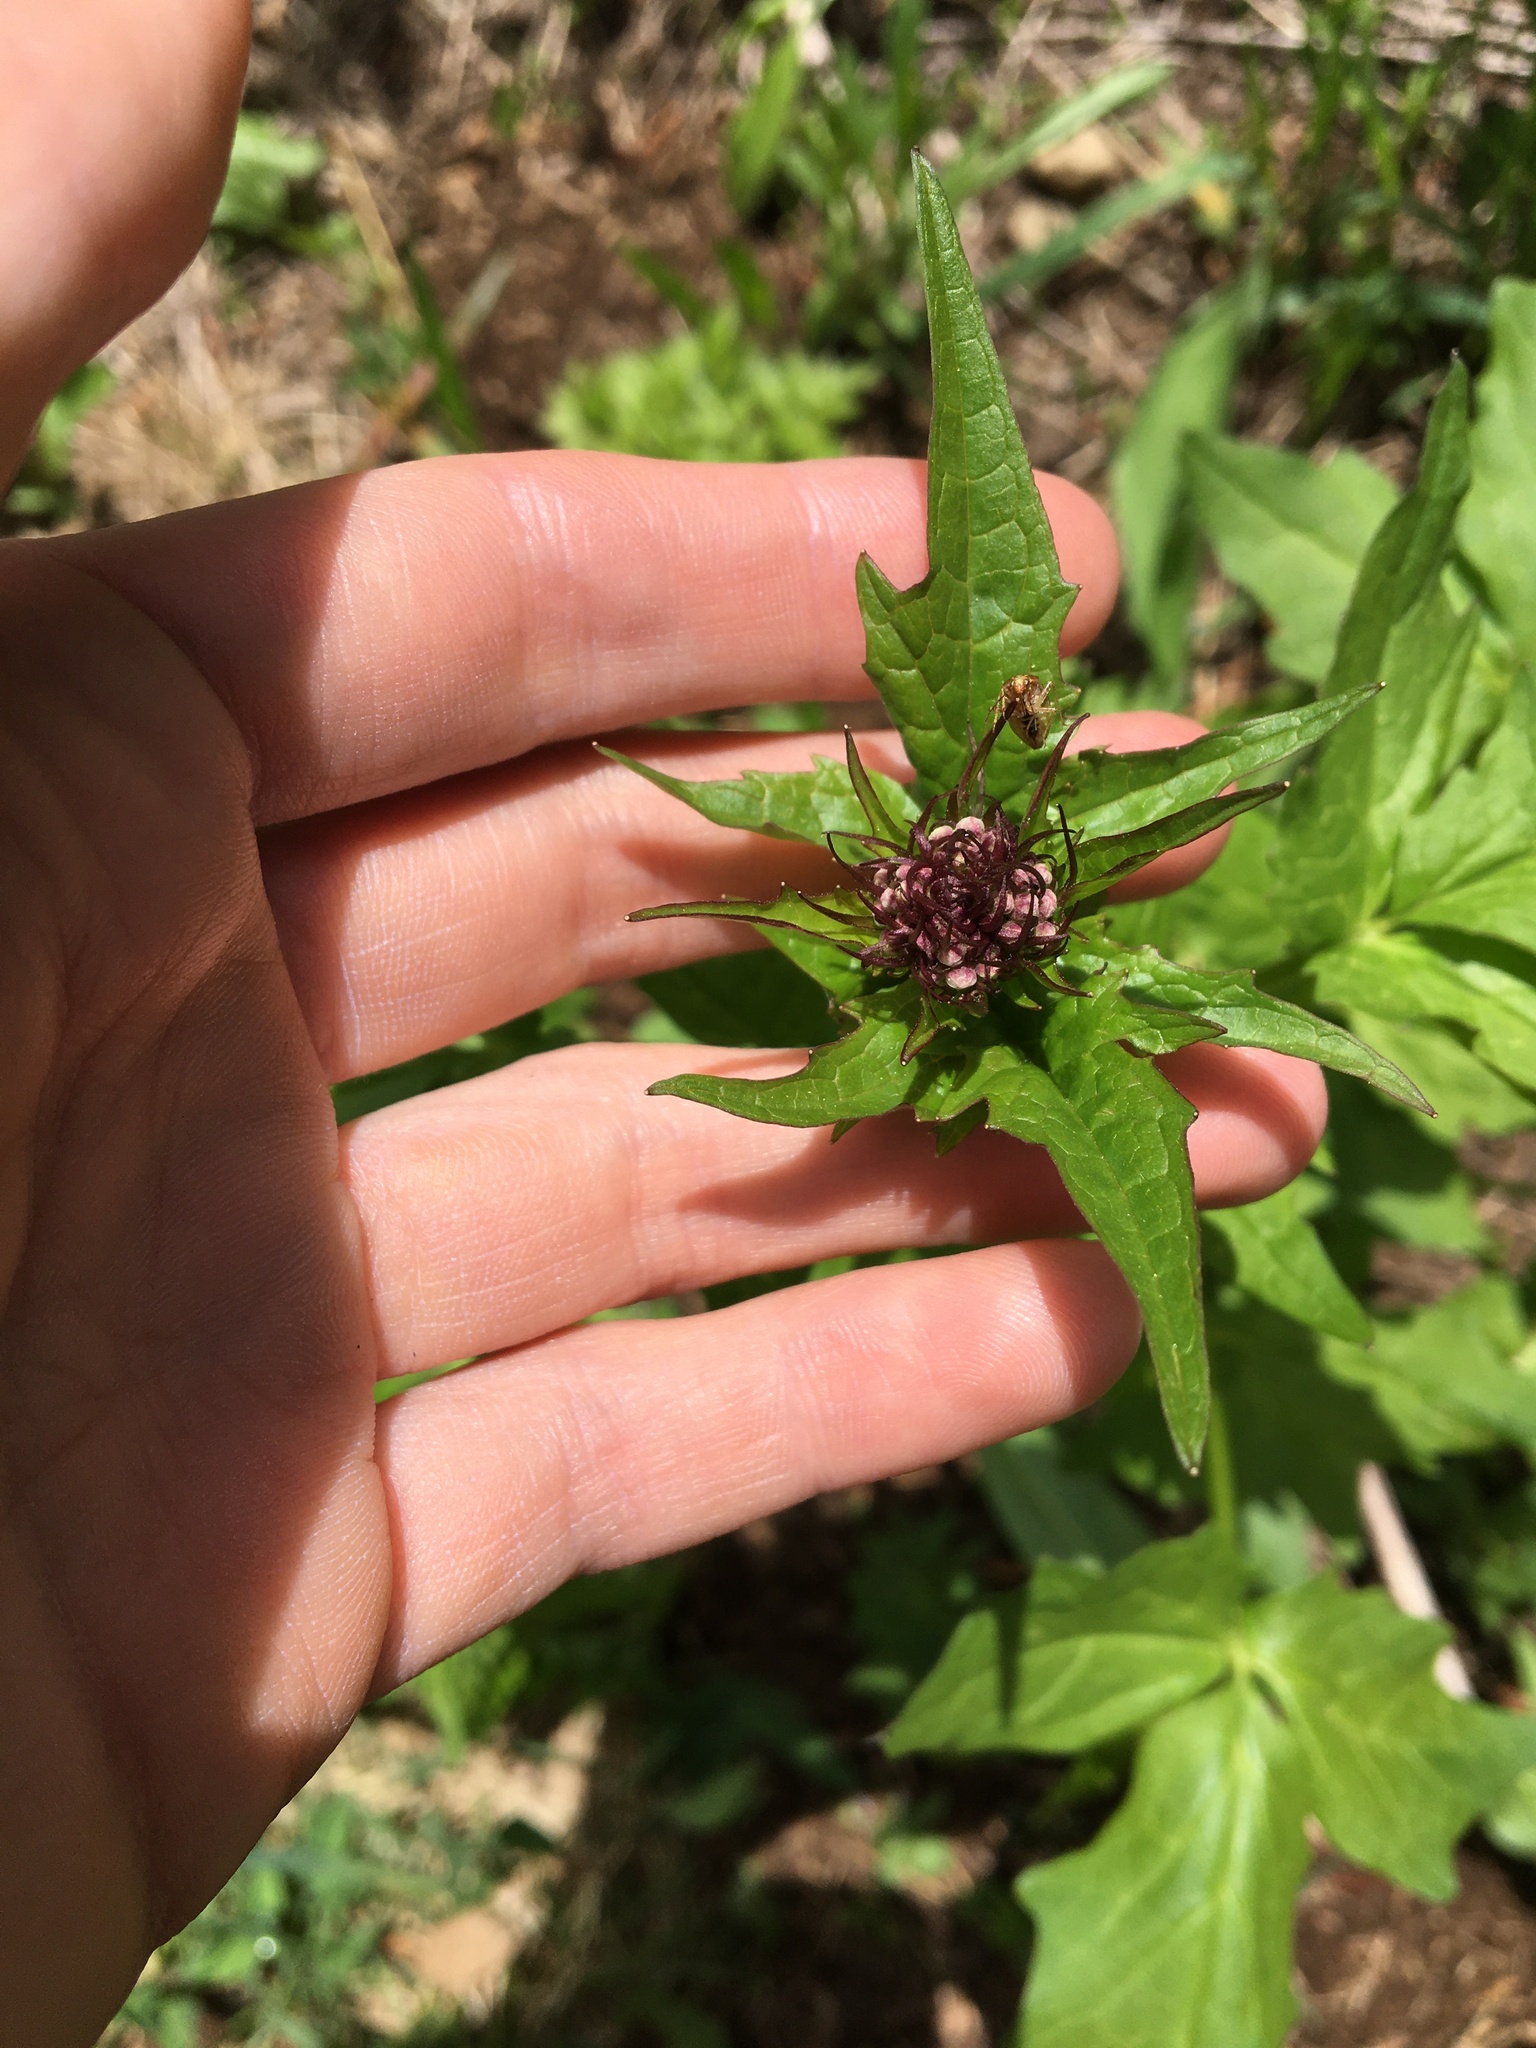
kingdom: Plantae
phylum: Tracheophyta
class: Magnoliopsida
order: Dipsacales
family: Caprifoliaceae
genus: Valeriana
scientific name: Valeriana sitchensis
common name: Pacific valerian
